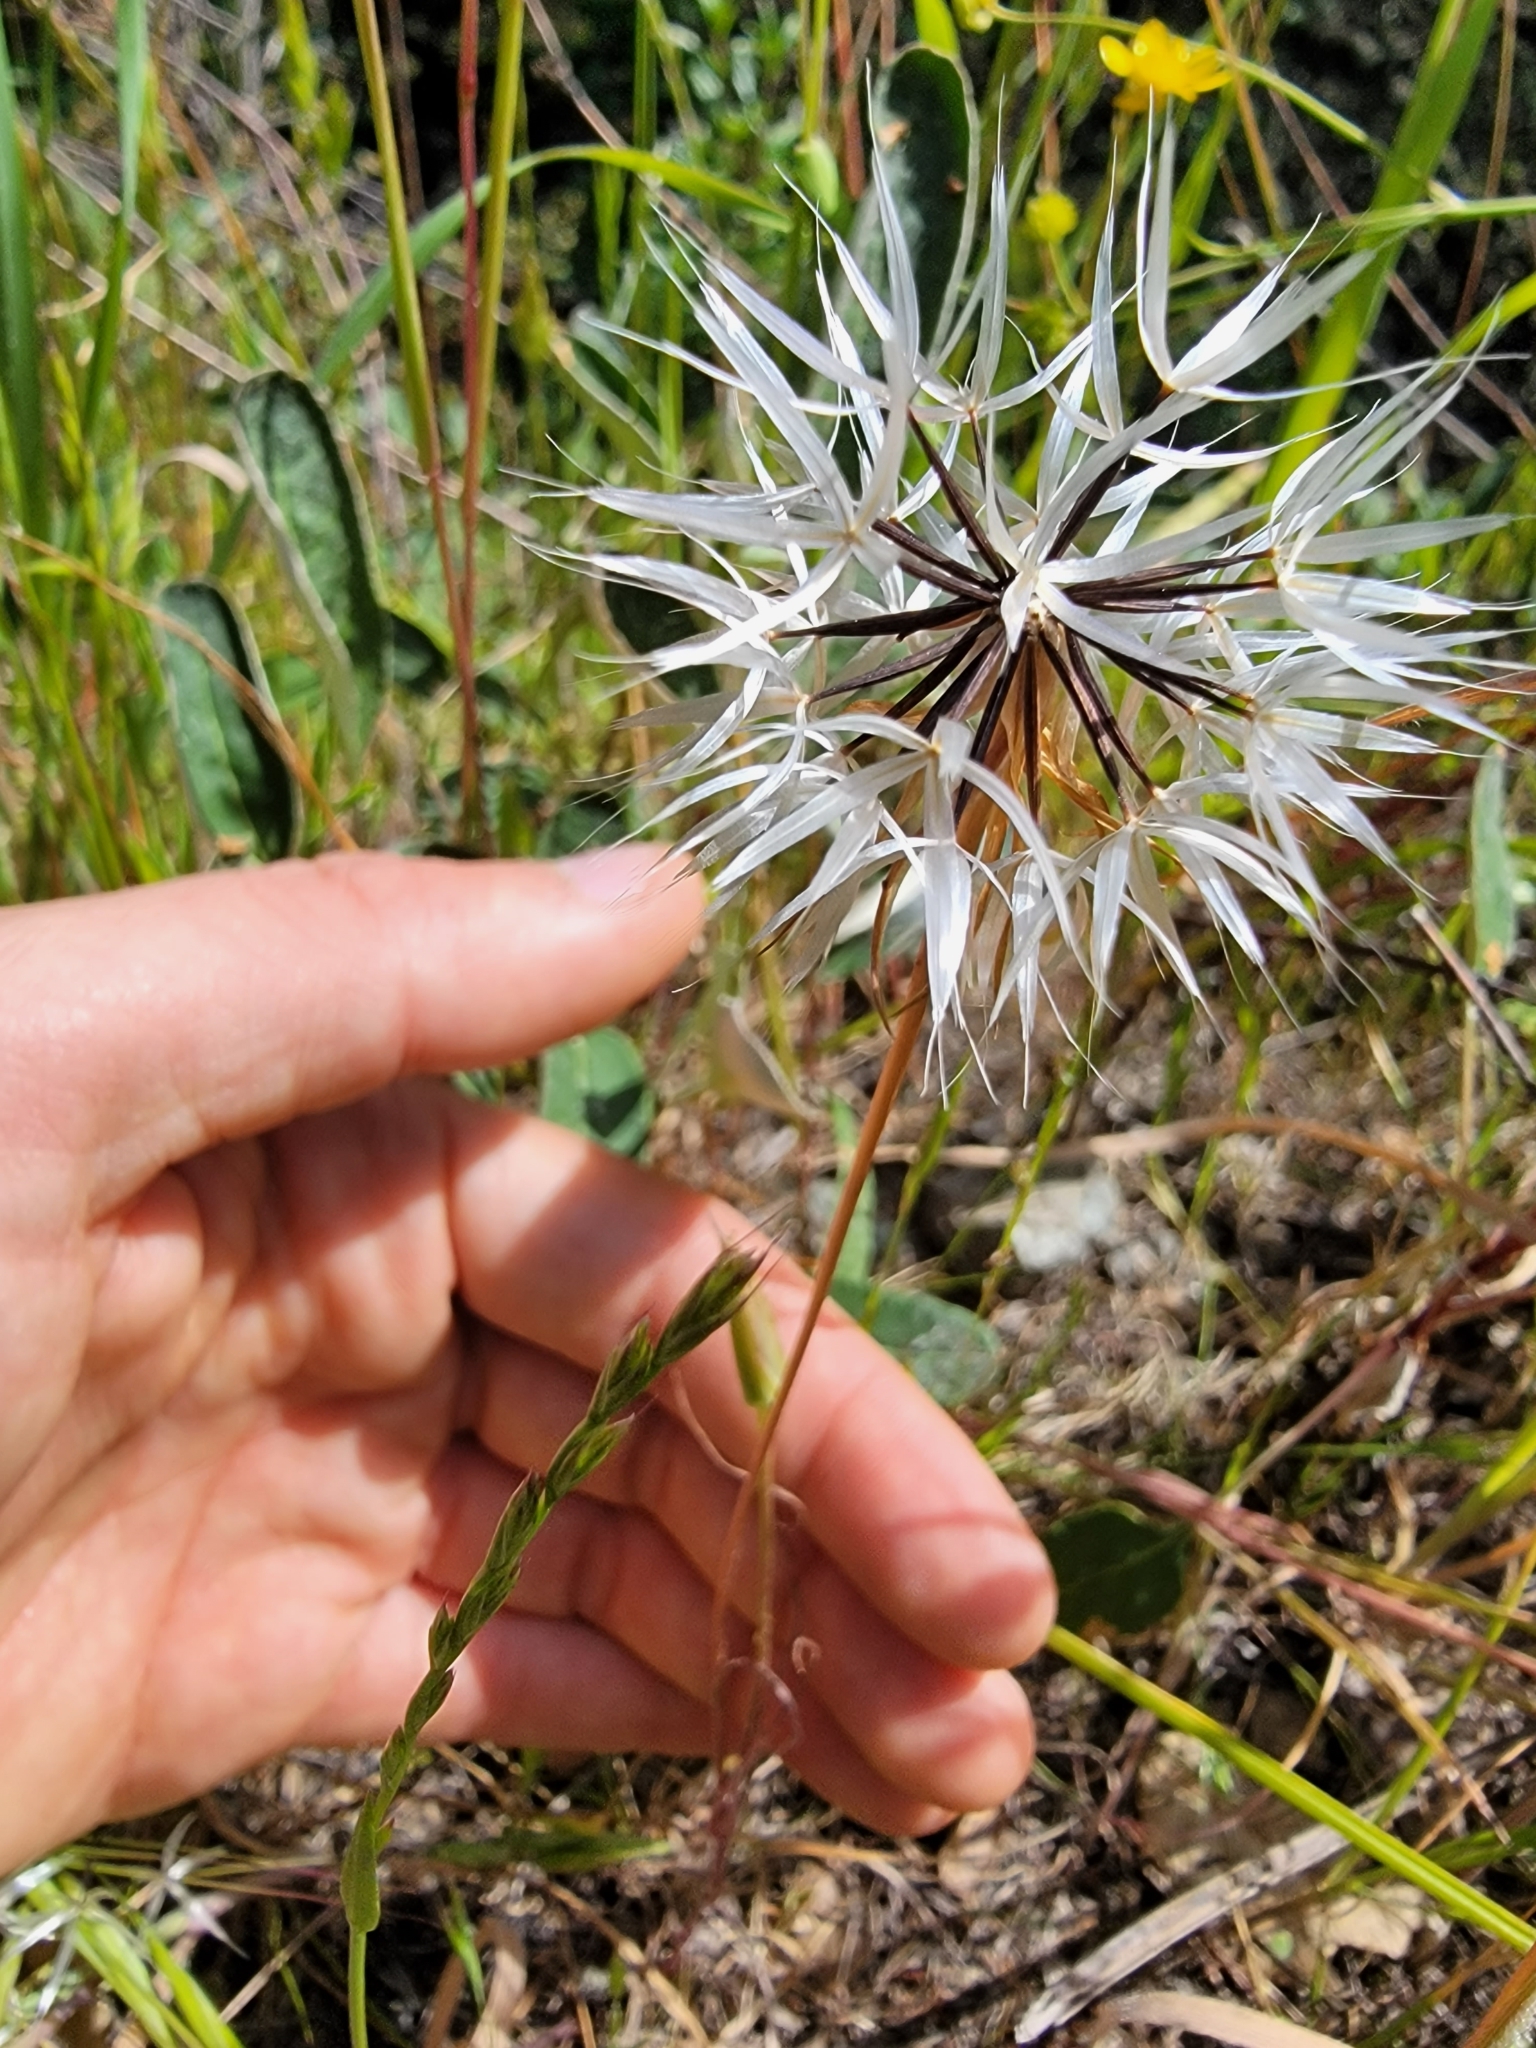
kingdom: Plantae
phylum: Tracheophyta
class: Magnoliopsida
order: Asterales
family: Asteraceae
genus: Microseris
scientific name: Microseris lindleyi
